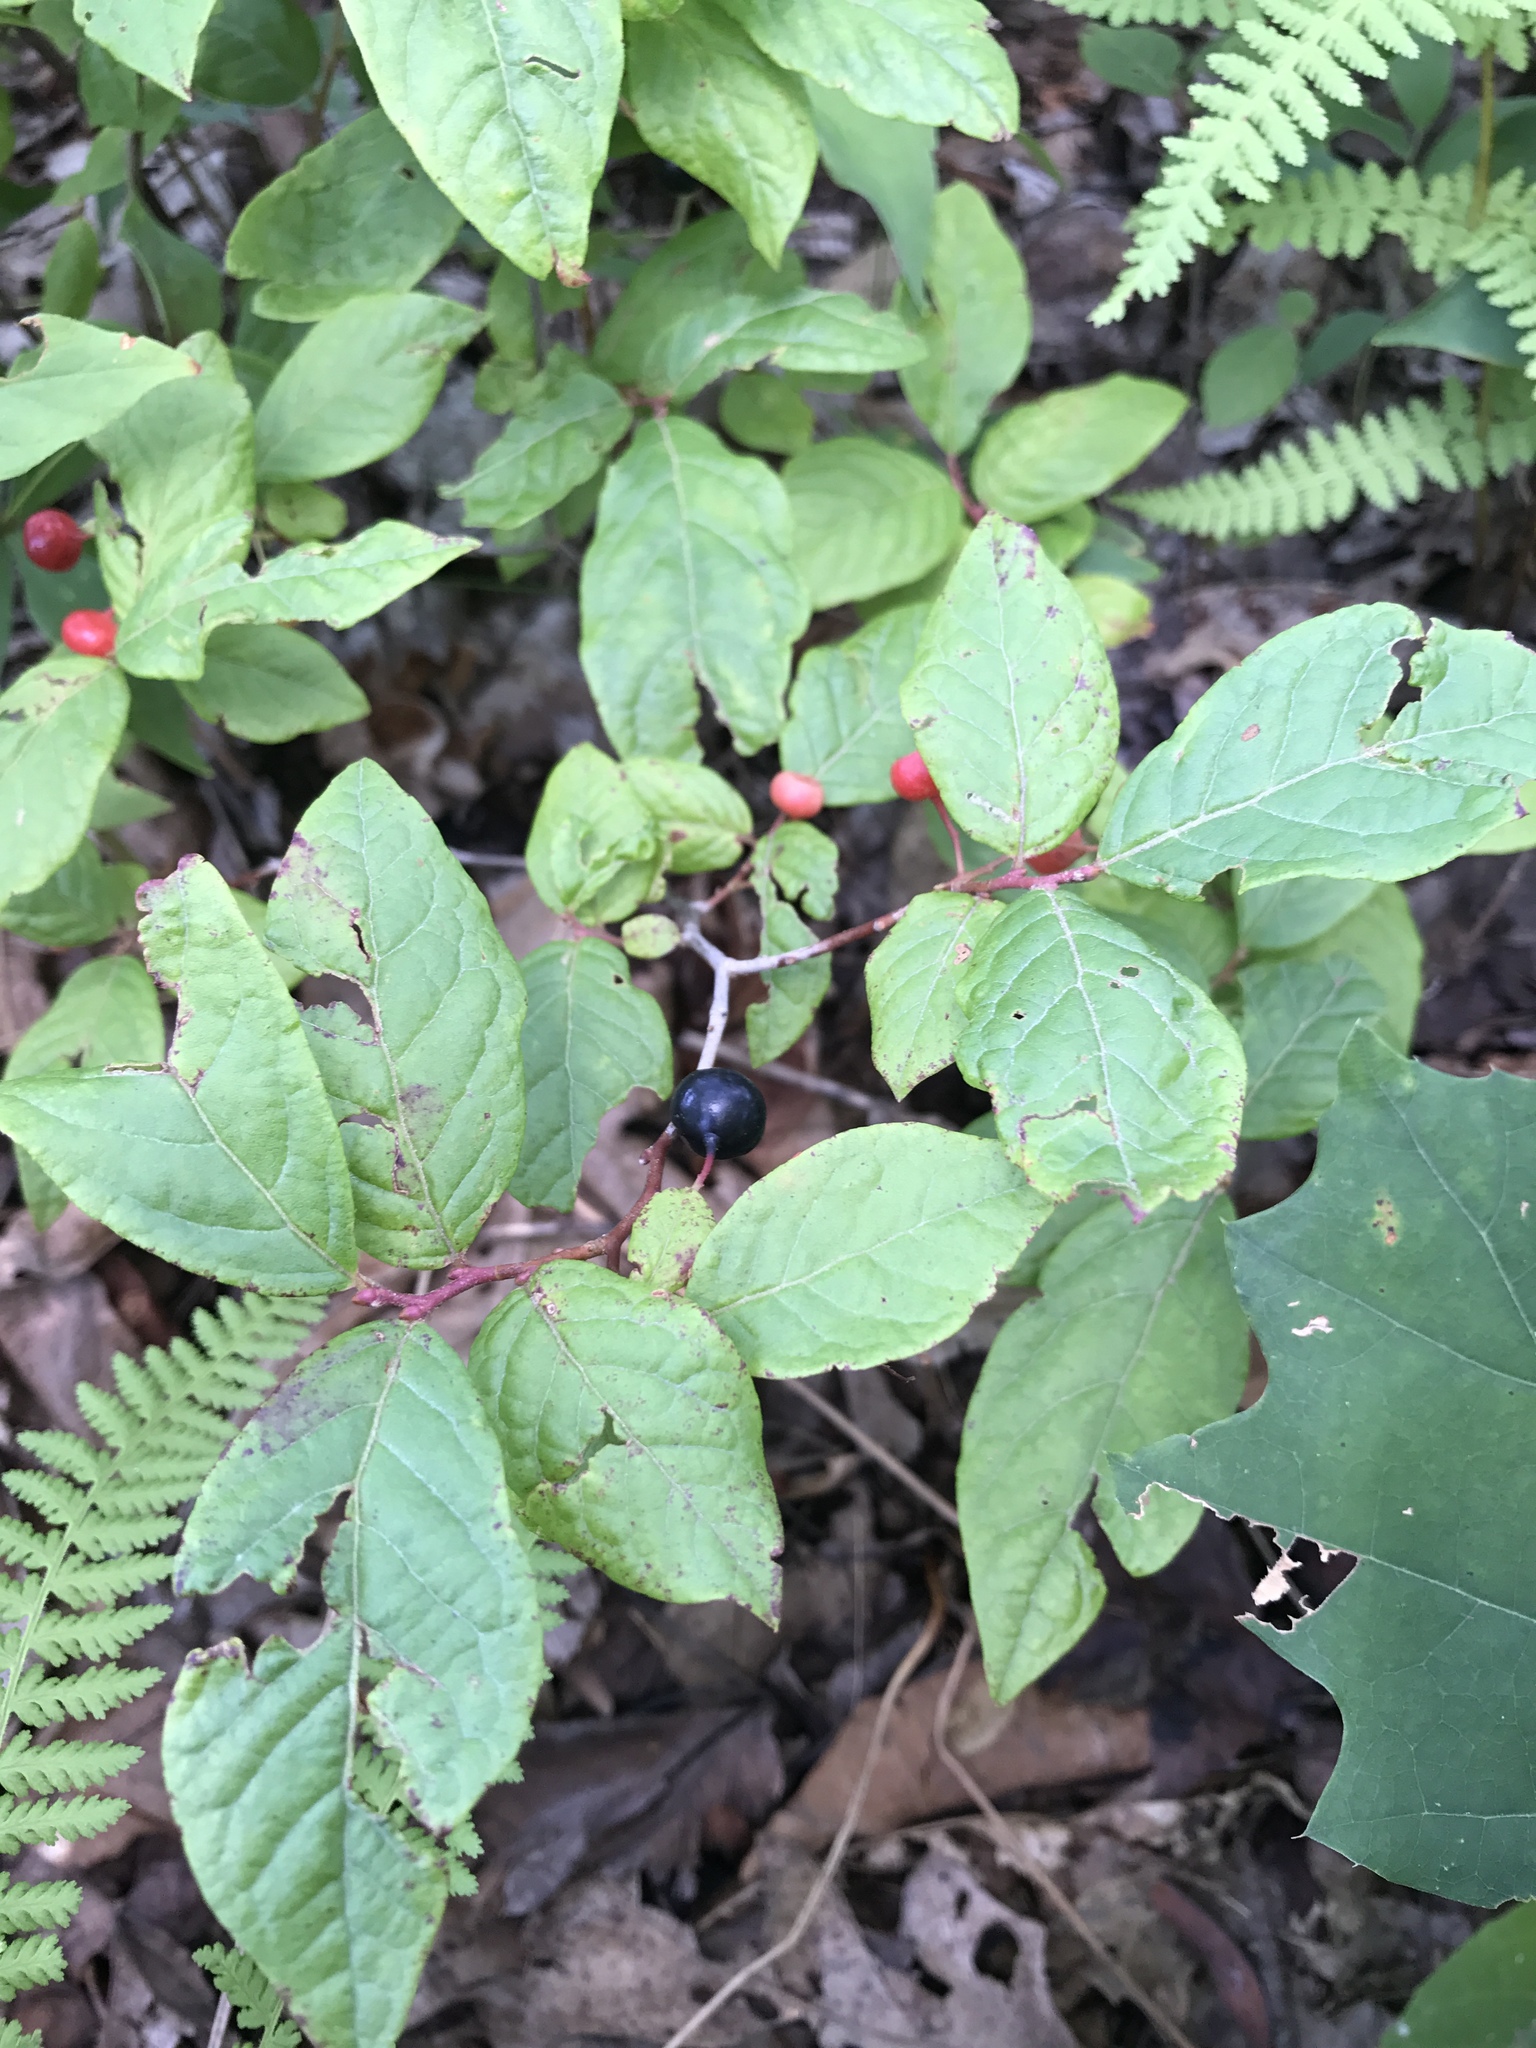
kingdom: Plantae
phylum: Tracheophyta
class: Magnoliopsida
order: Ericales
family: Ericaceae
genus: Gaylussacia
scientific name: Gaylussacia ursina
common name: Bear huckleberry
